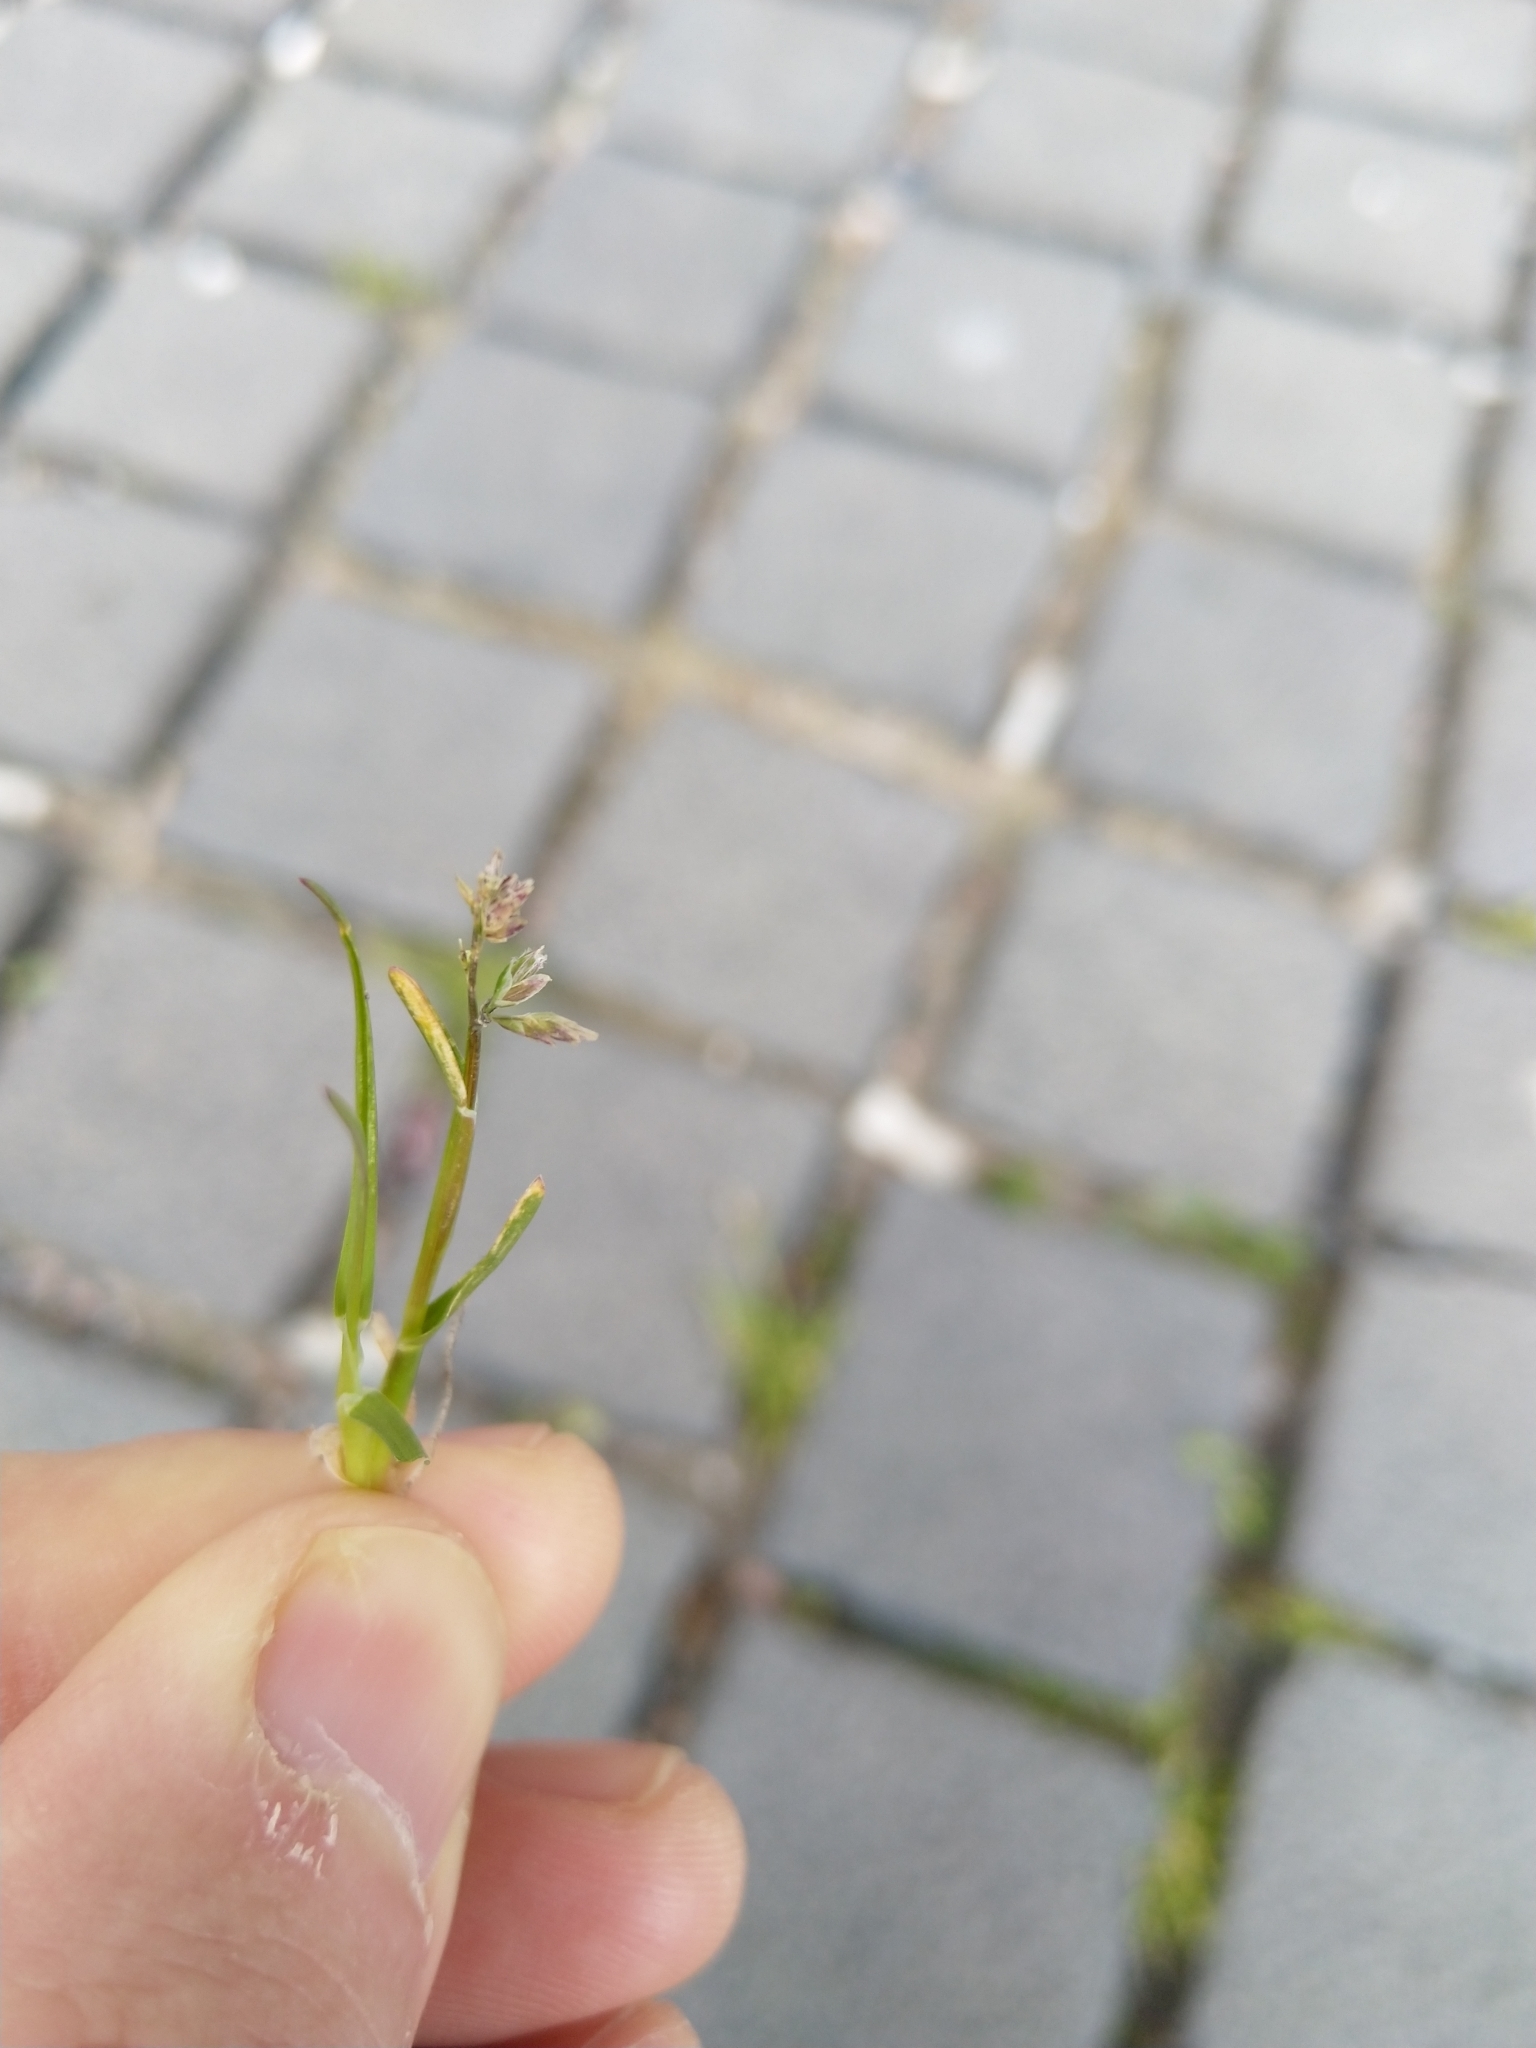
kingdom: Plantae
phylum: Tracheophyta
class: Liliopsida
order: Poales
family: Poaceae
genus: Poa
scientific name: Poa annua
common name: Annual bluegrass
